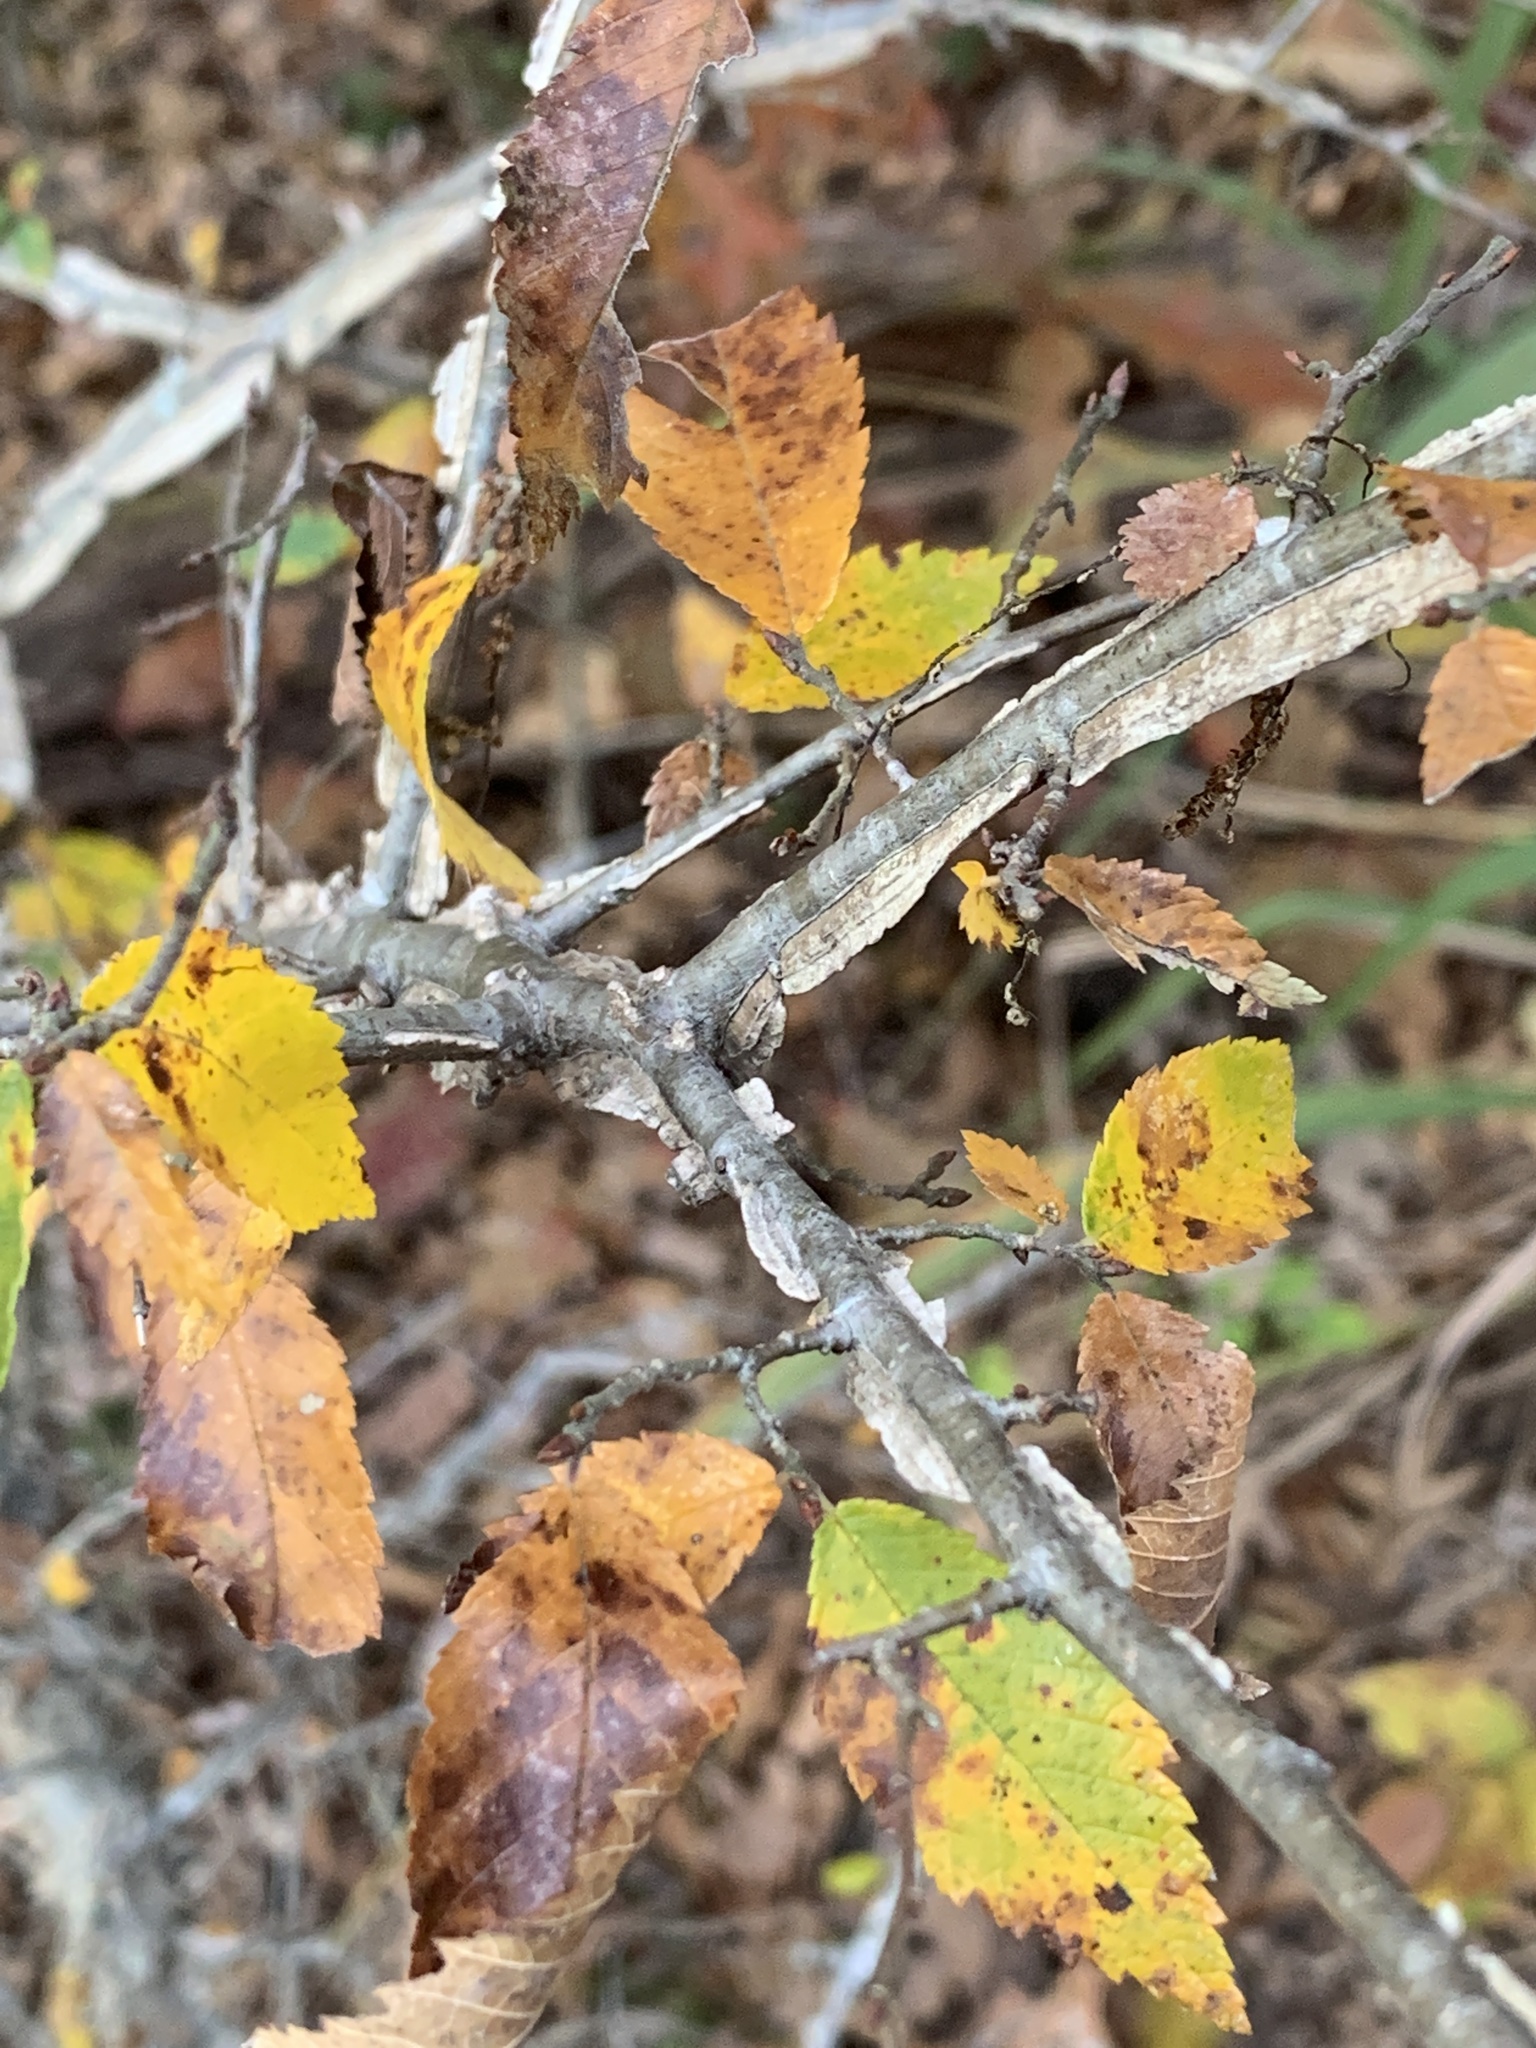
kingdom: Plantae
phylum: Tracheophyta
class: Magnoliopsida
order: Rosales
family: Ulmaceae
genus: Ulmus
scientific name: Ulmus alata
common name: Winged elm
